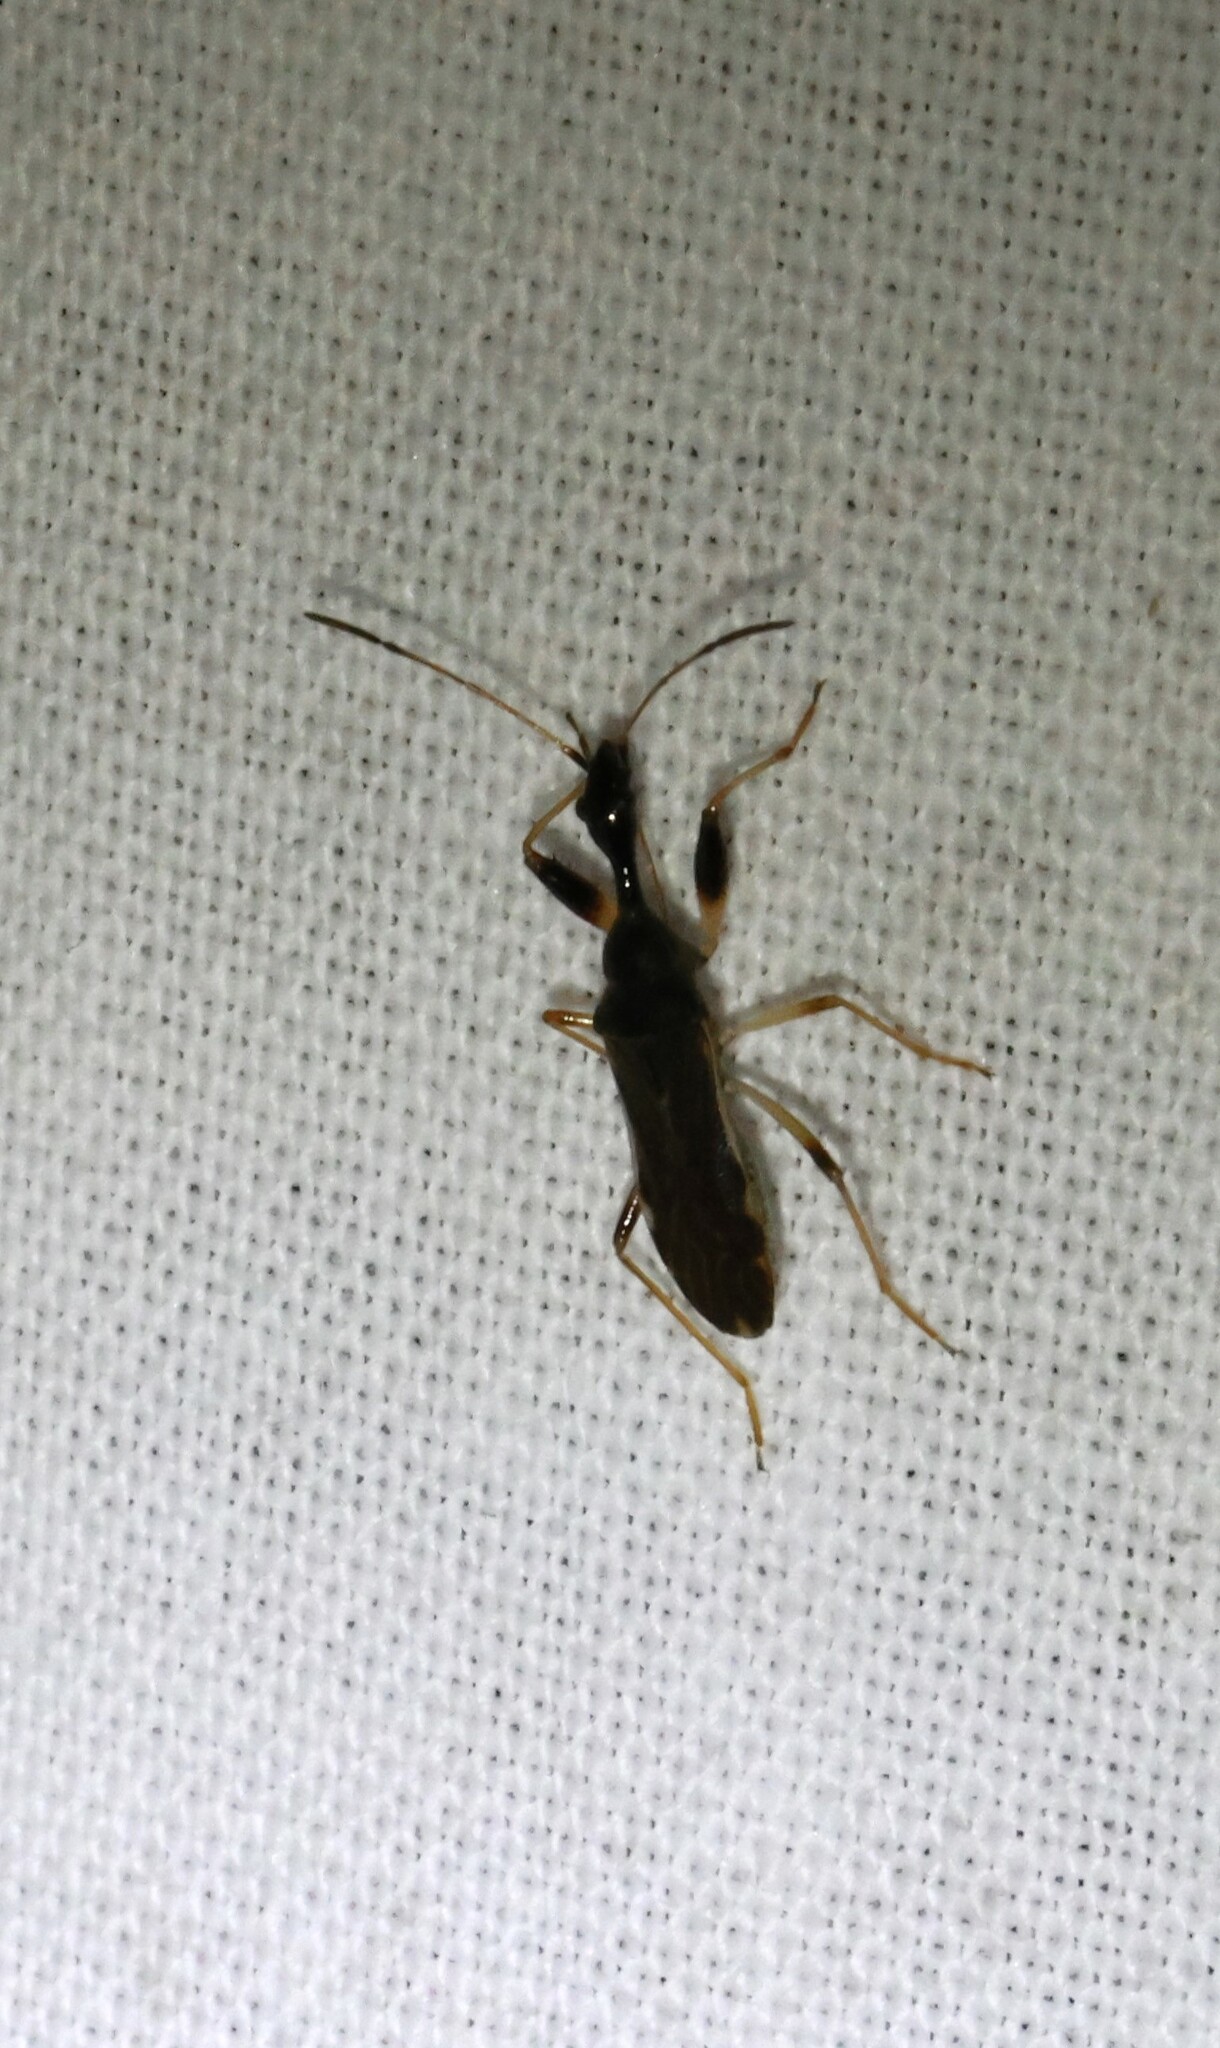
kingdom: Animalia
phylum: Arthropoda
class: Insecta
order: Hemiptera
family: Rhyparochromidae
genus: Myodocha
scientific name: Myodocha serripes
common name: Long-necked seed bug
